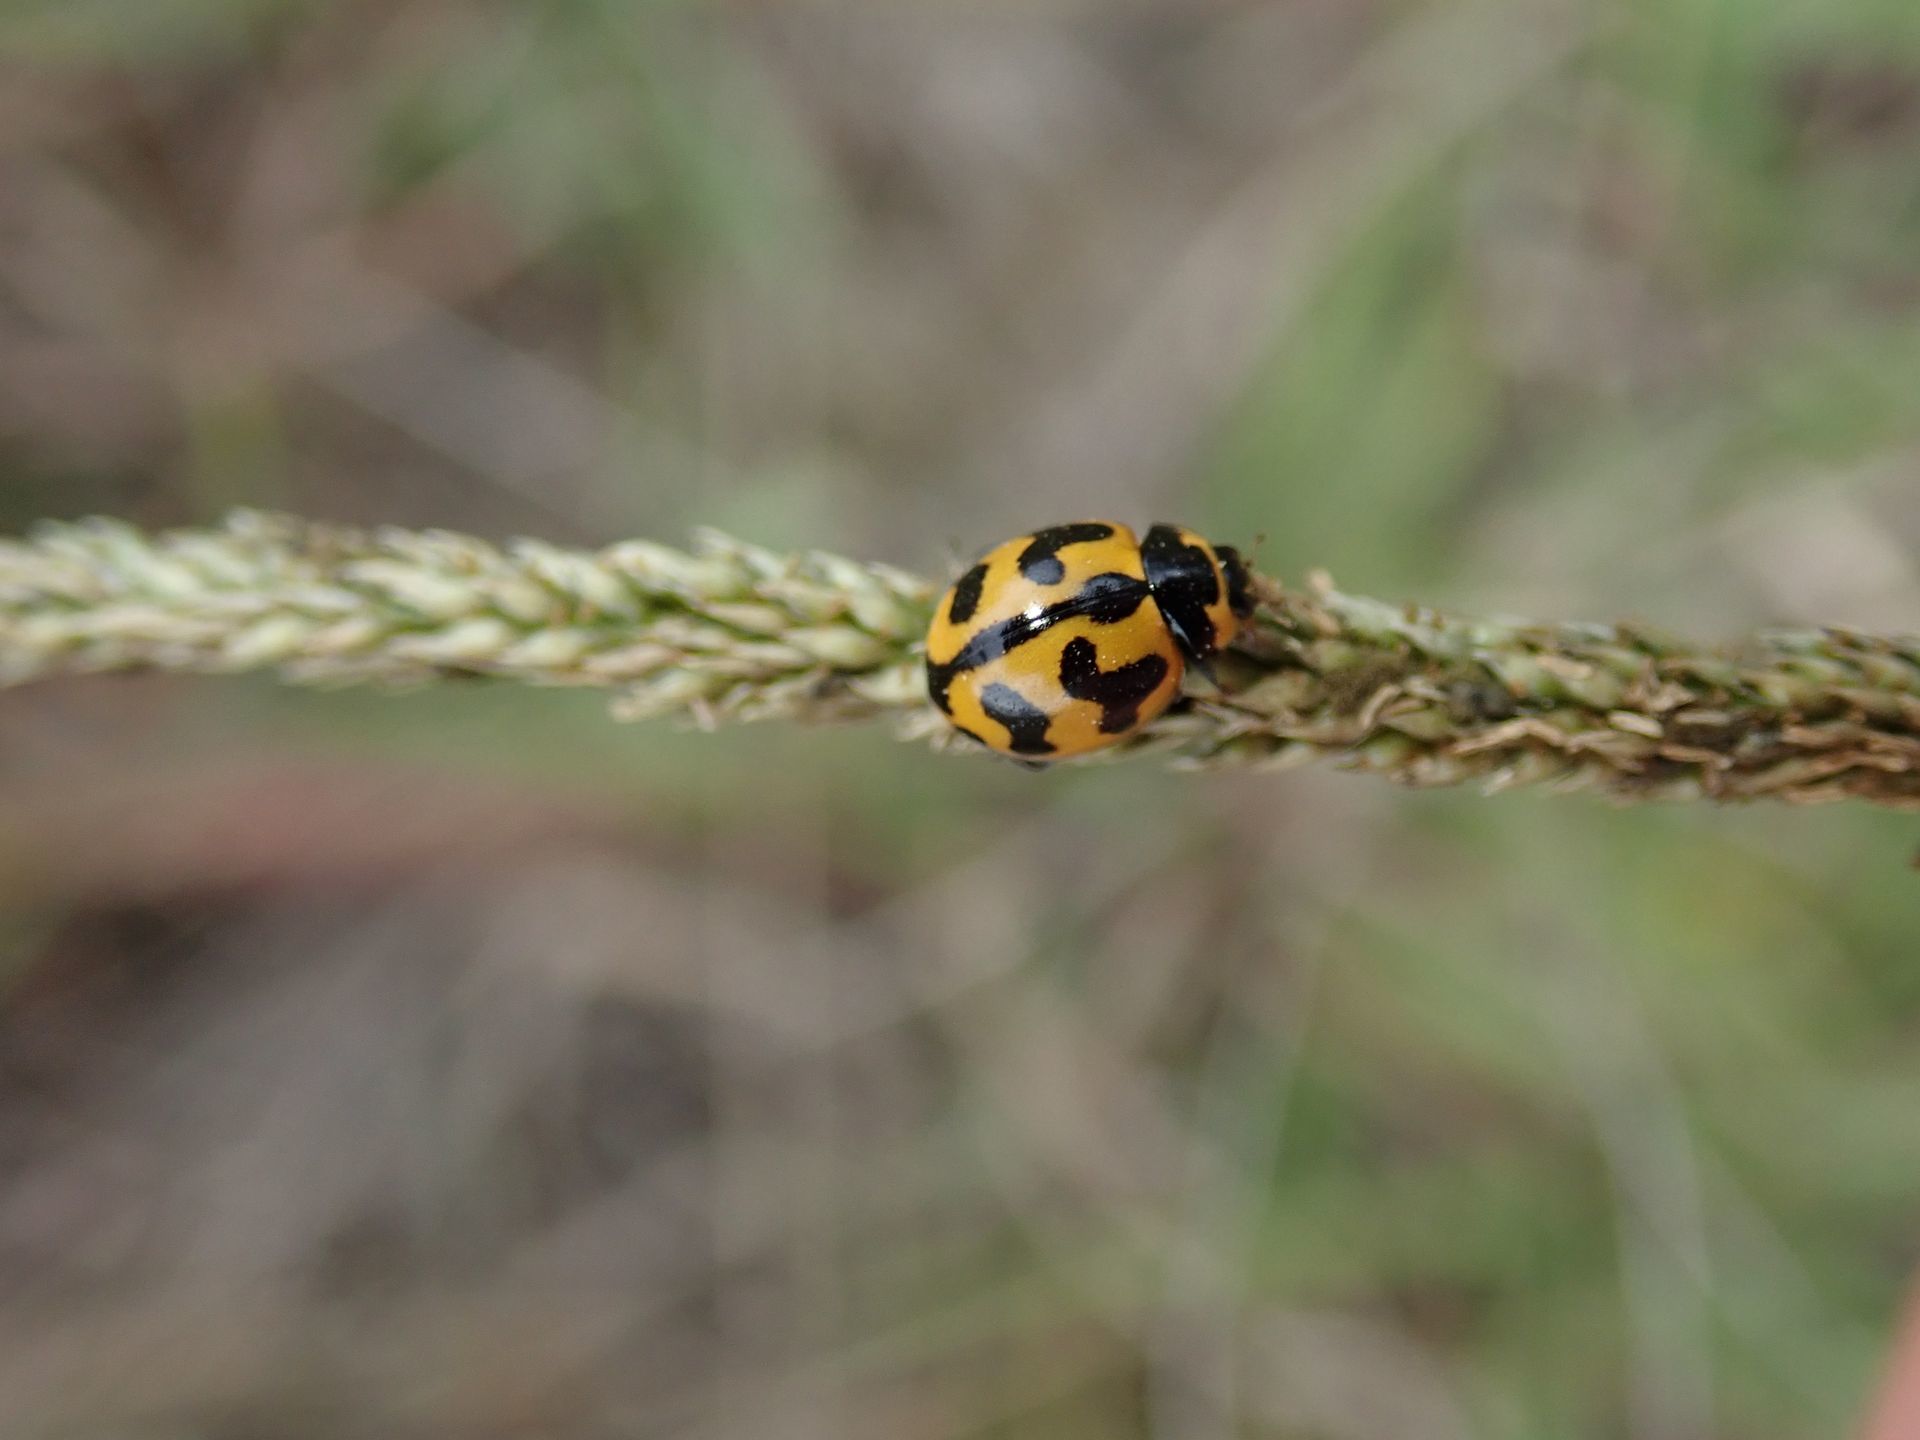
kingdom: Animalia
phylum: Arthropoda
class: Insecta
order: Coleoptera
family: Coccinellidae
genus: Coccinella
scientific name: Coccinella transversalis
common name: Transverse lady beetle
